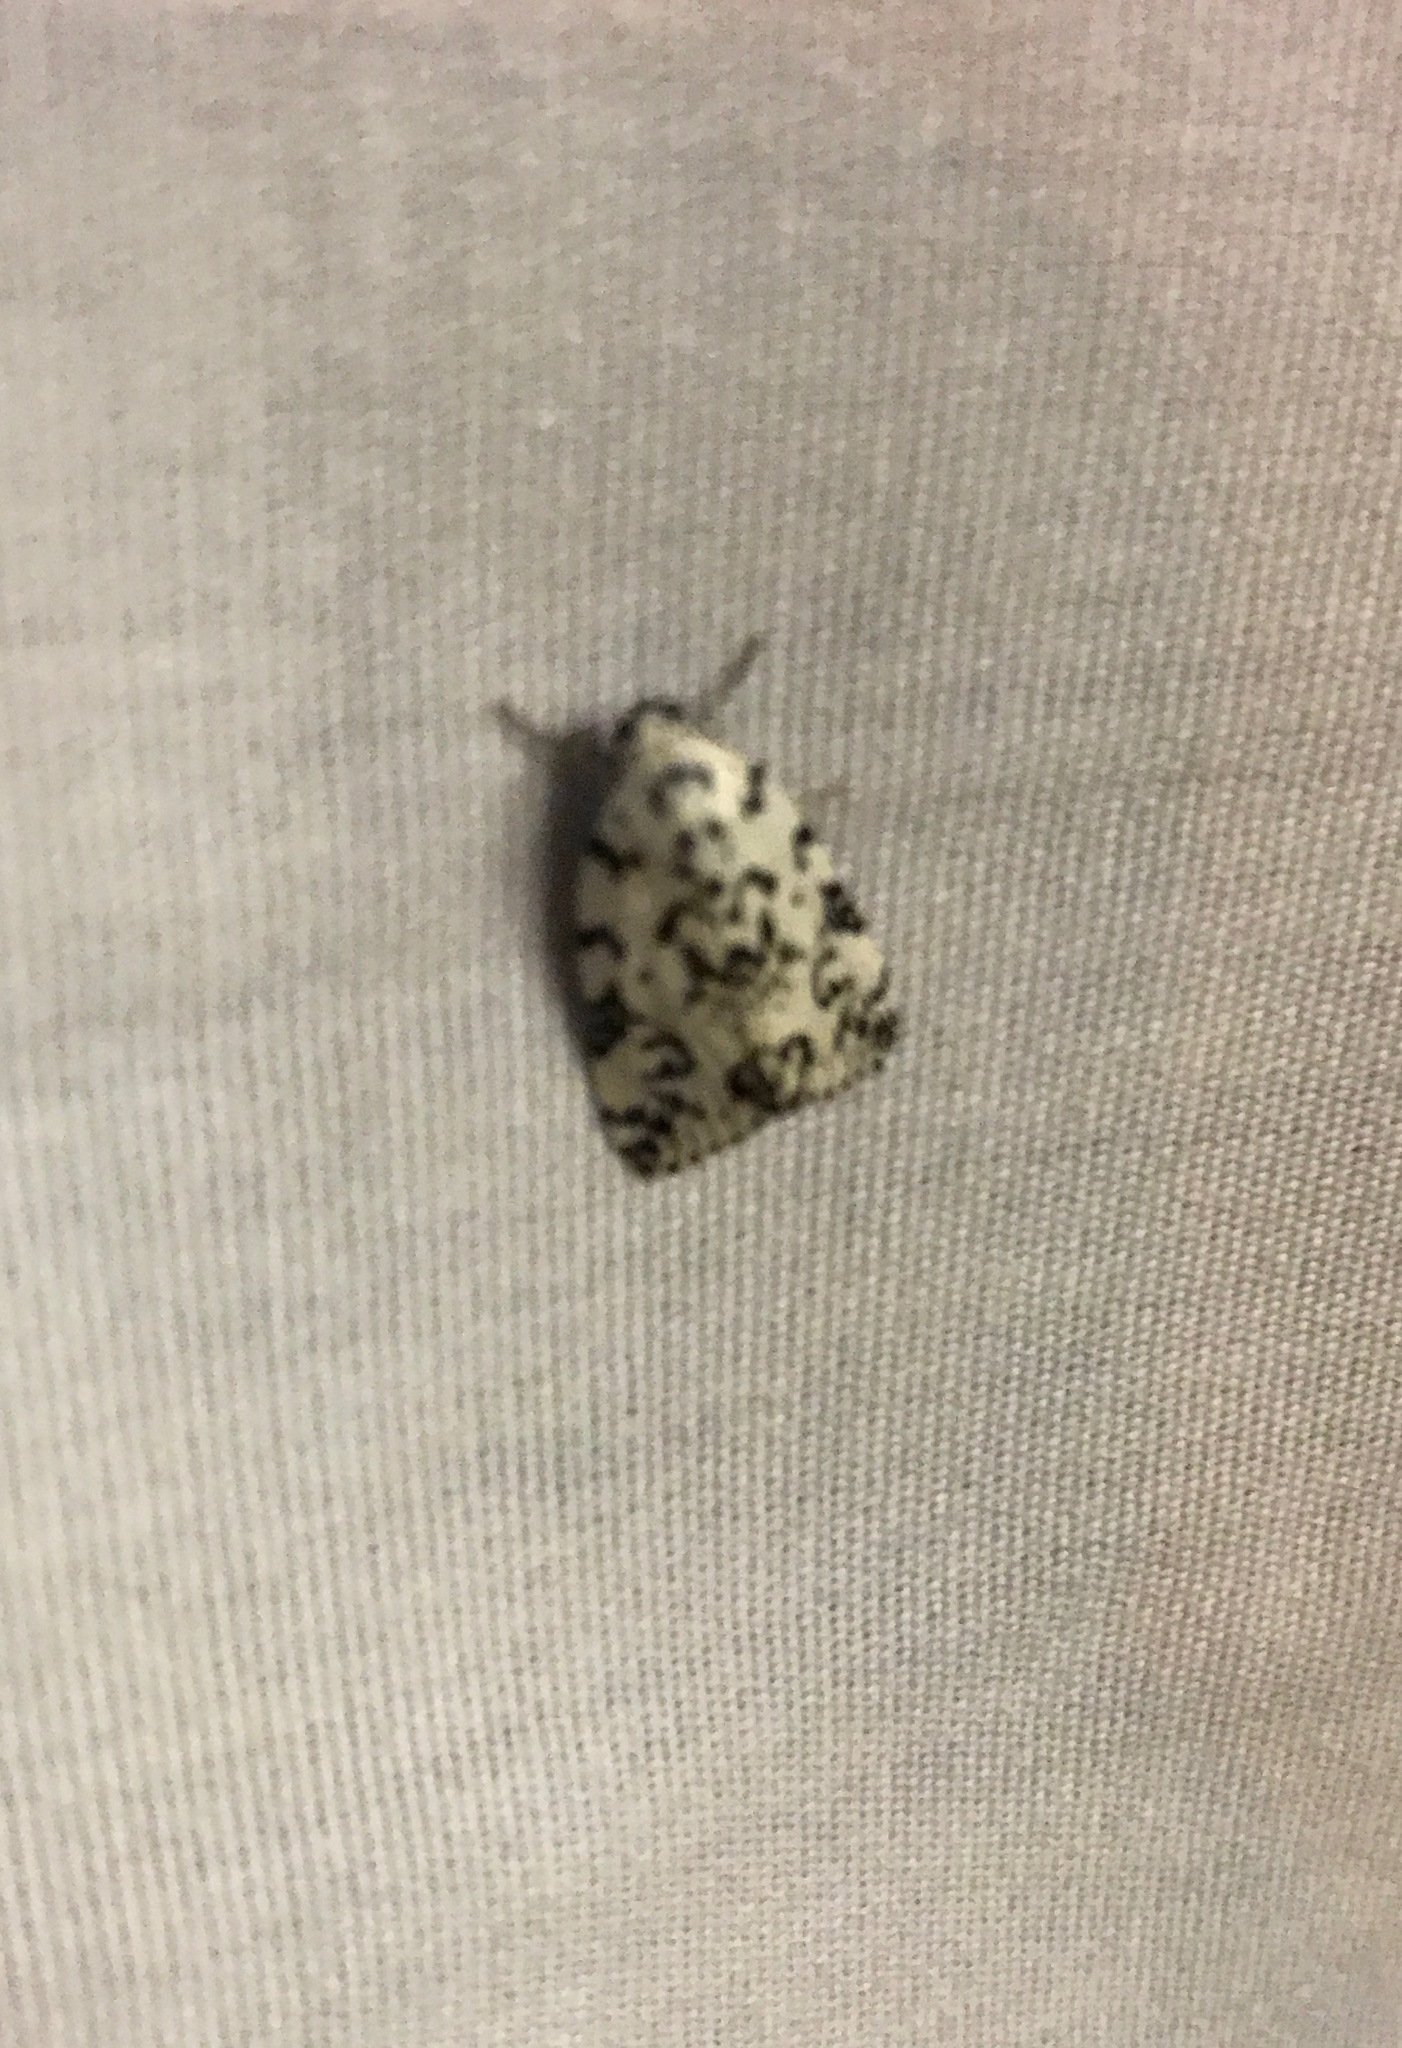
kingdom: Animalia
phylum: Arthropoda
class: Insecta
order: Lepidoptera
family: Noctuidae
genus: Polygrammate
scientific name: Polygrammate hebraeicum
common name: Hebrew moth
